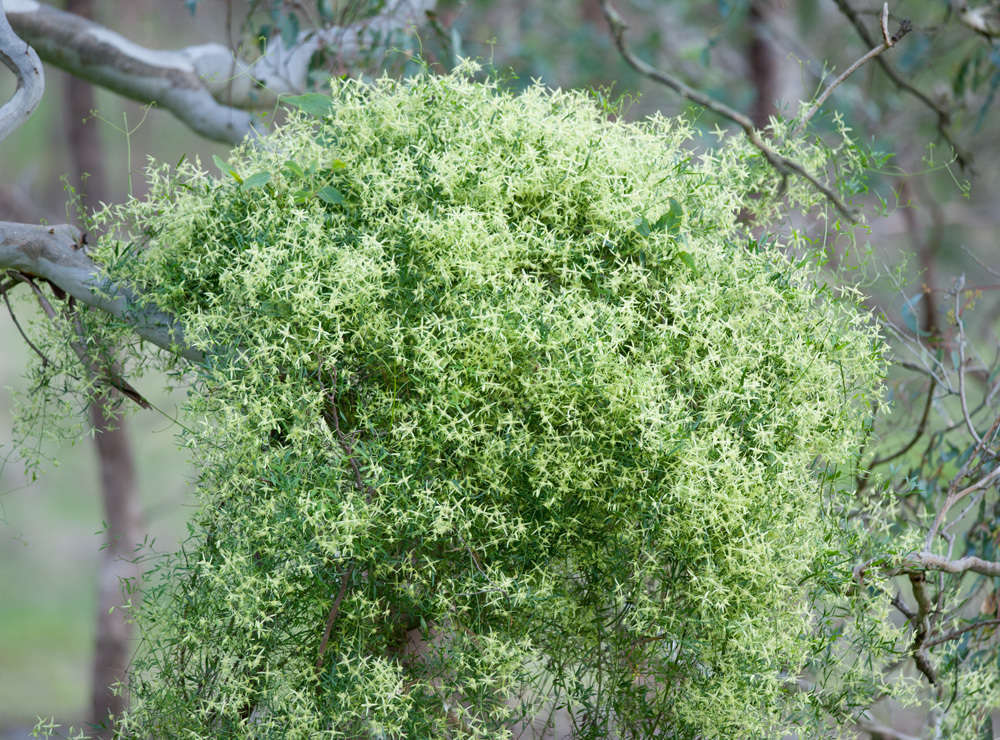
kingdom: Plantae
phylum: Tracheophyta
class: Magnoliopsida
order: Ranunculales
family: Ranunculaceae
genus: Clematis
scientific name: Clematis microphylla
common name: Headachevine
